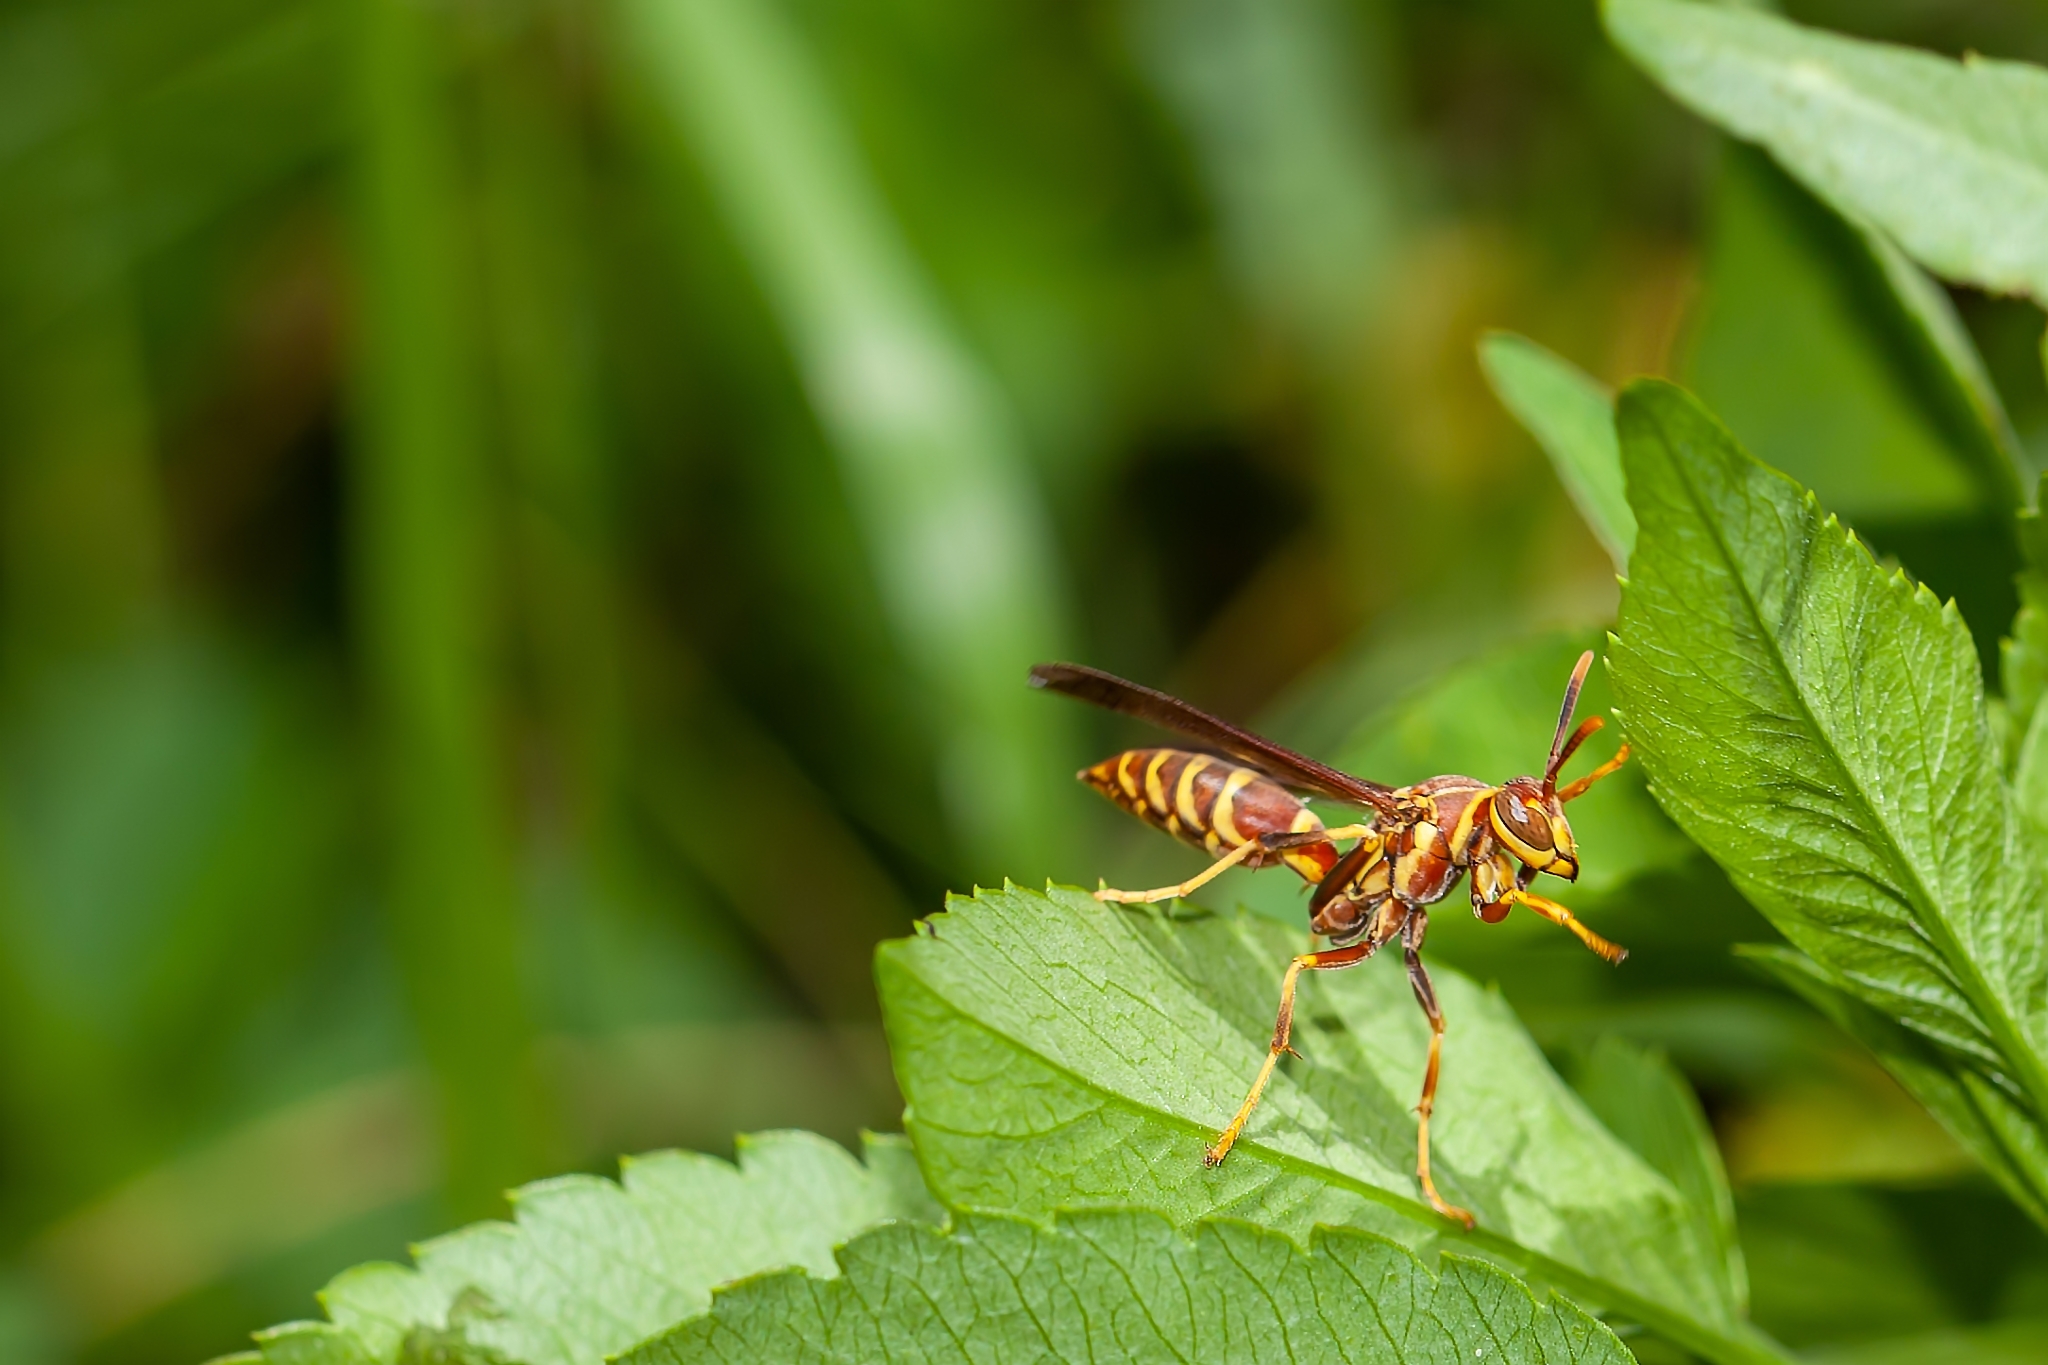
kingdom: Animalia
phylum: Arthropoda
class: Insecta
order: Hymenoptera
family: Eumenidae
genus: Polistes
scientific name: Polistes exclamans
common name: Paper wasp
